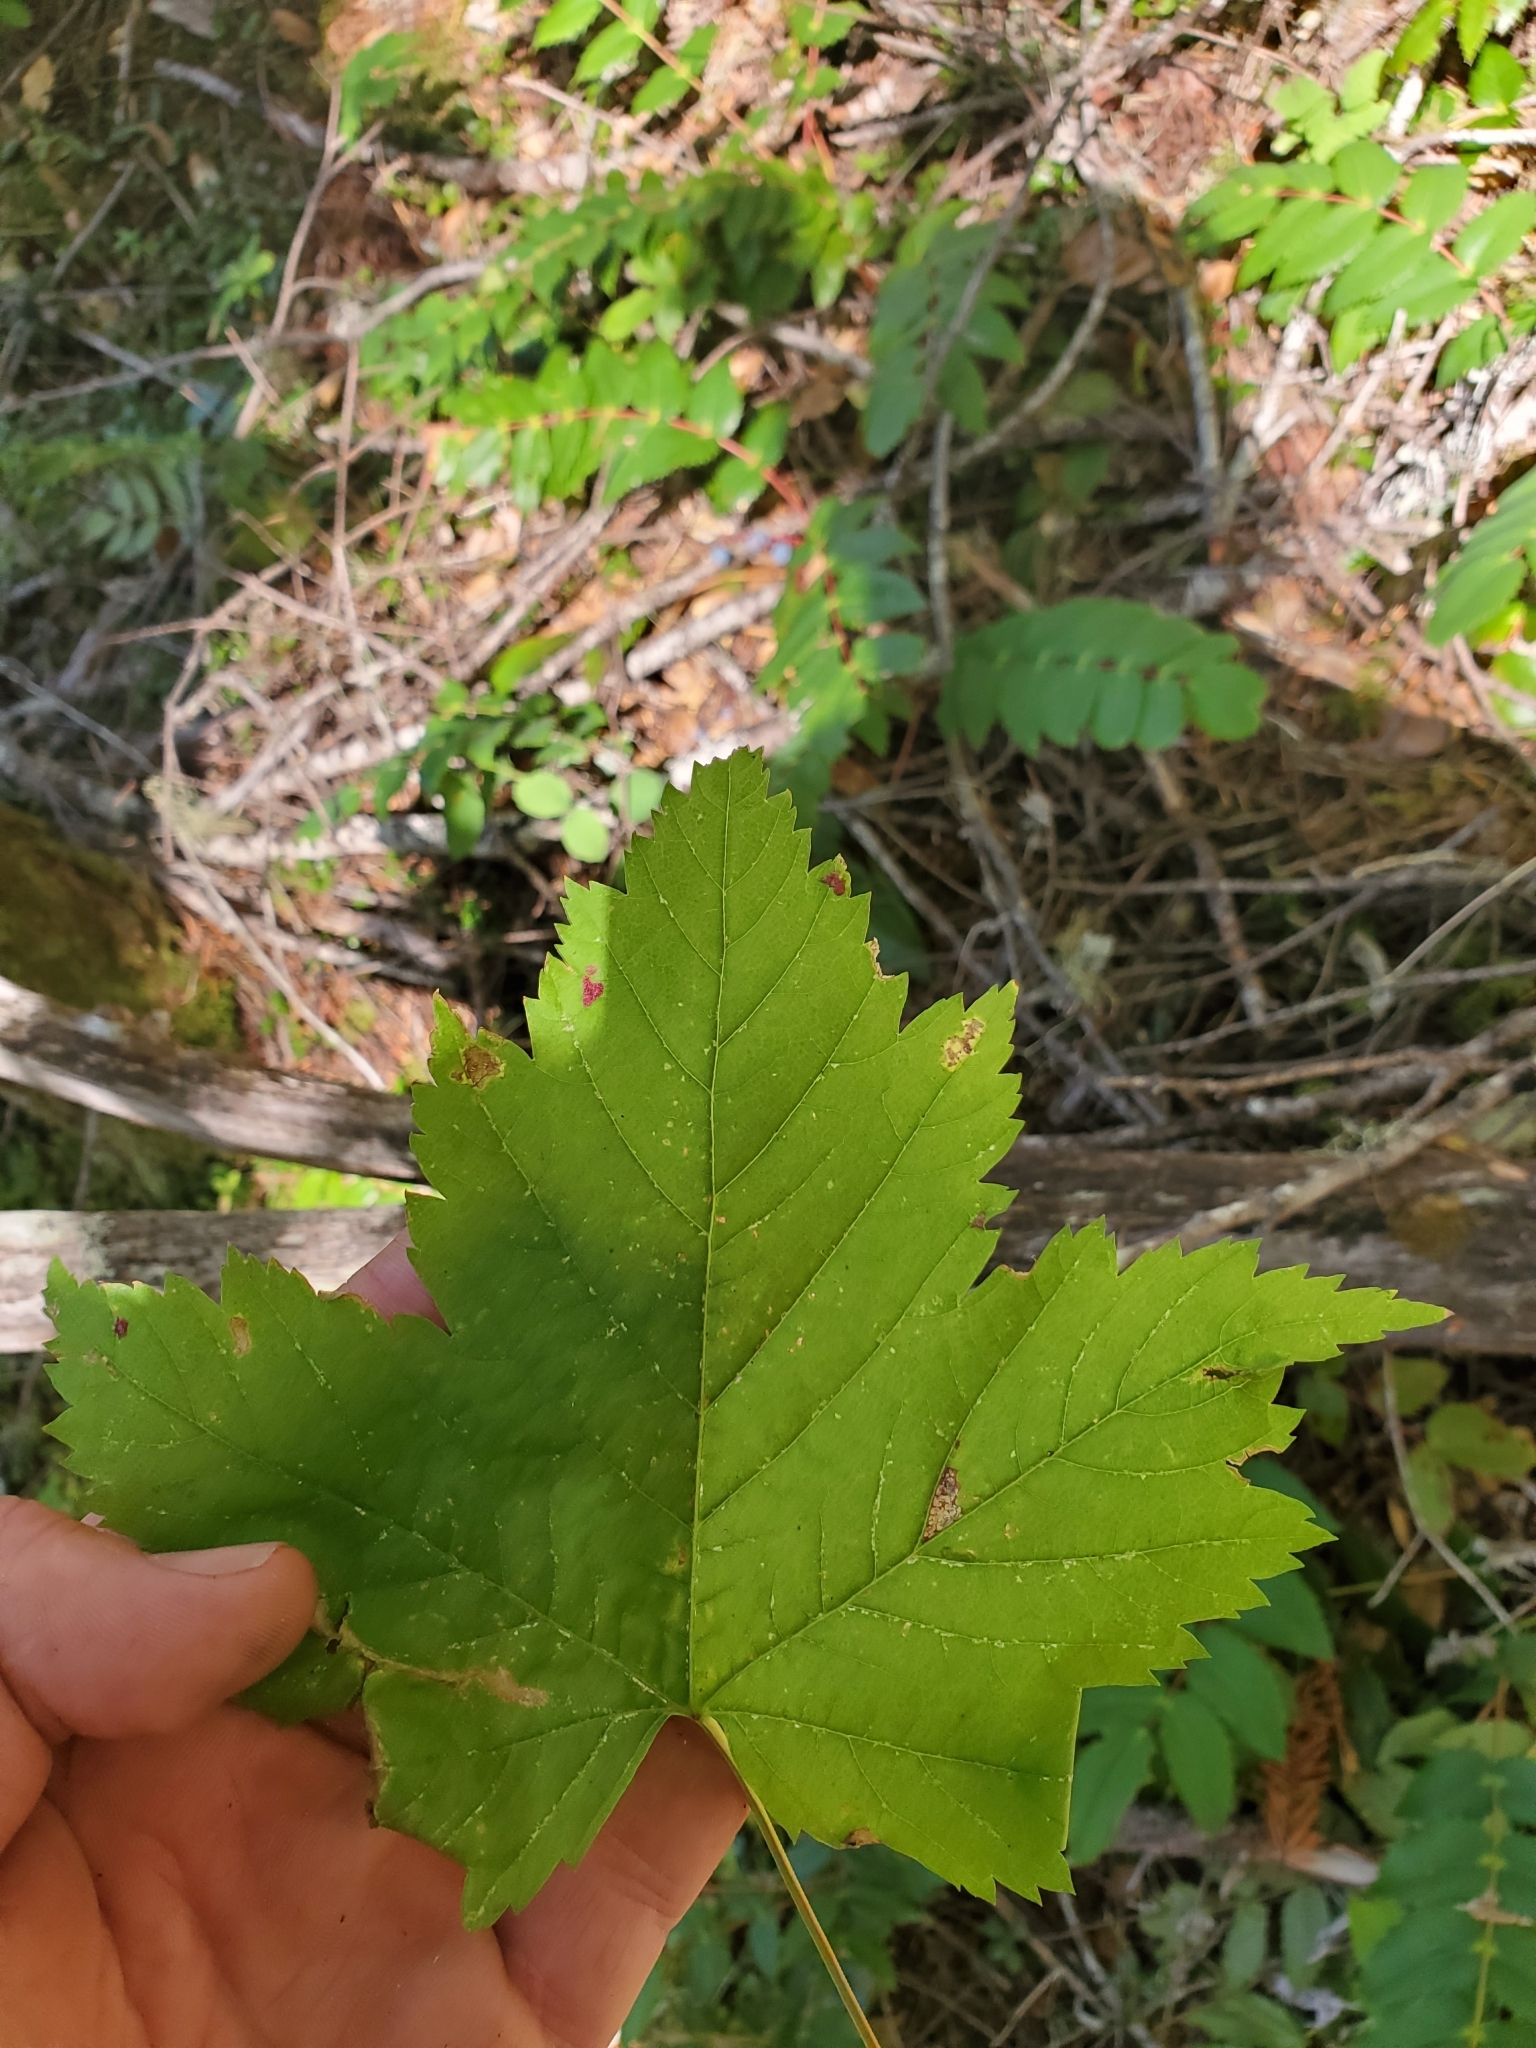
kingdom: Plantae
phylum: Tracheophyta
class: Magnoliopsida
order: Sapindales
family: Sapindaceae
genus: Acer
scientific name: Acer glabrum
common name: Rocky mountain maple
